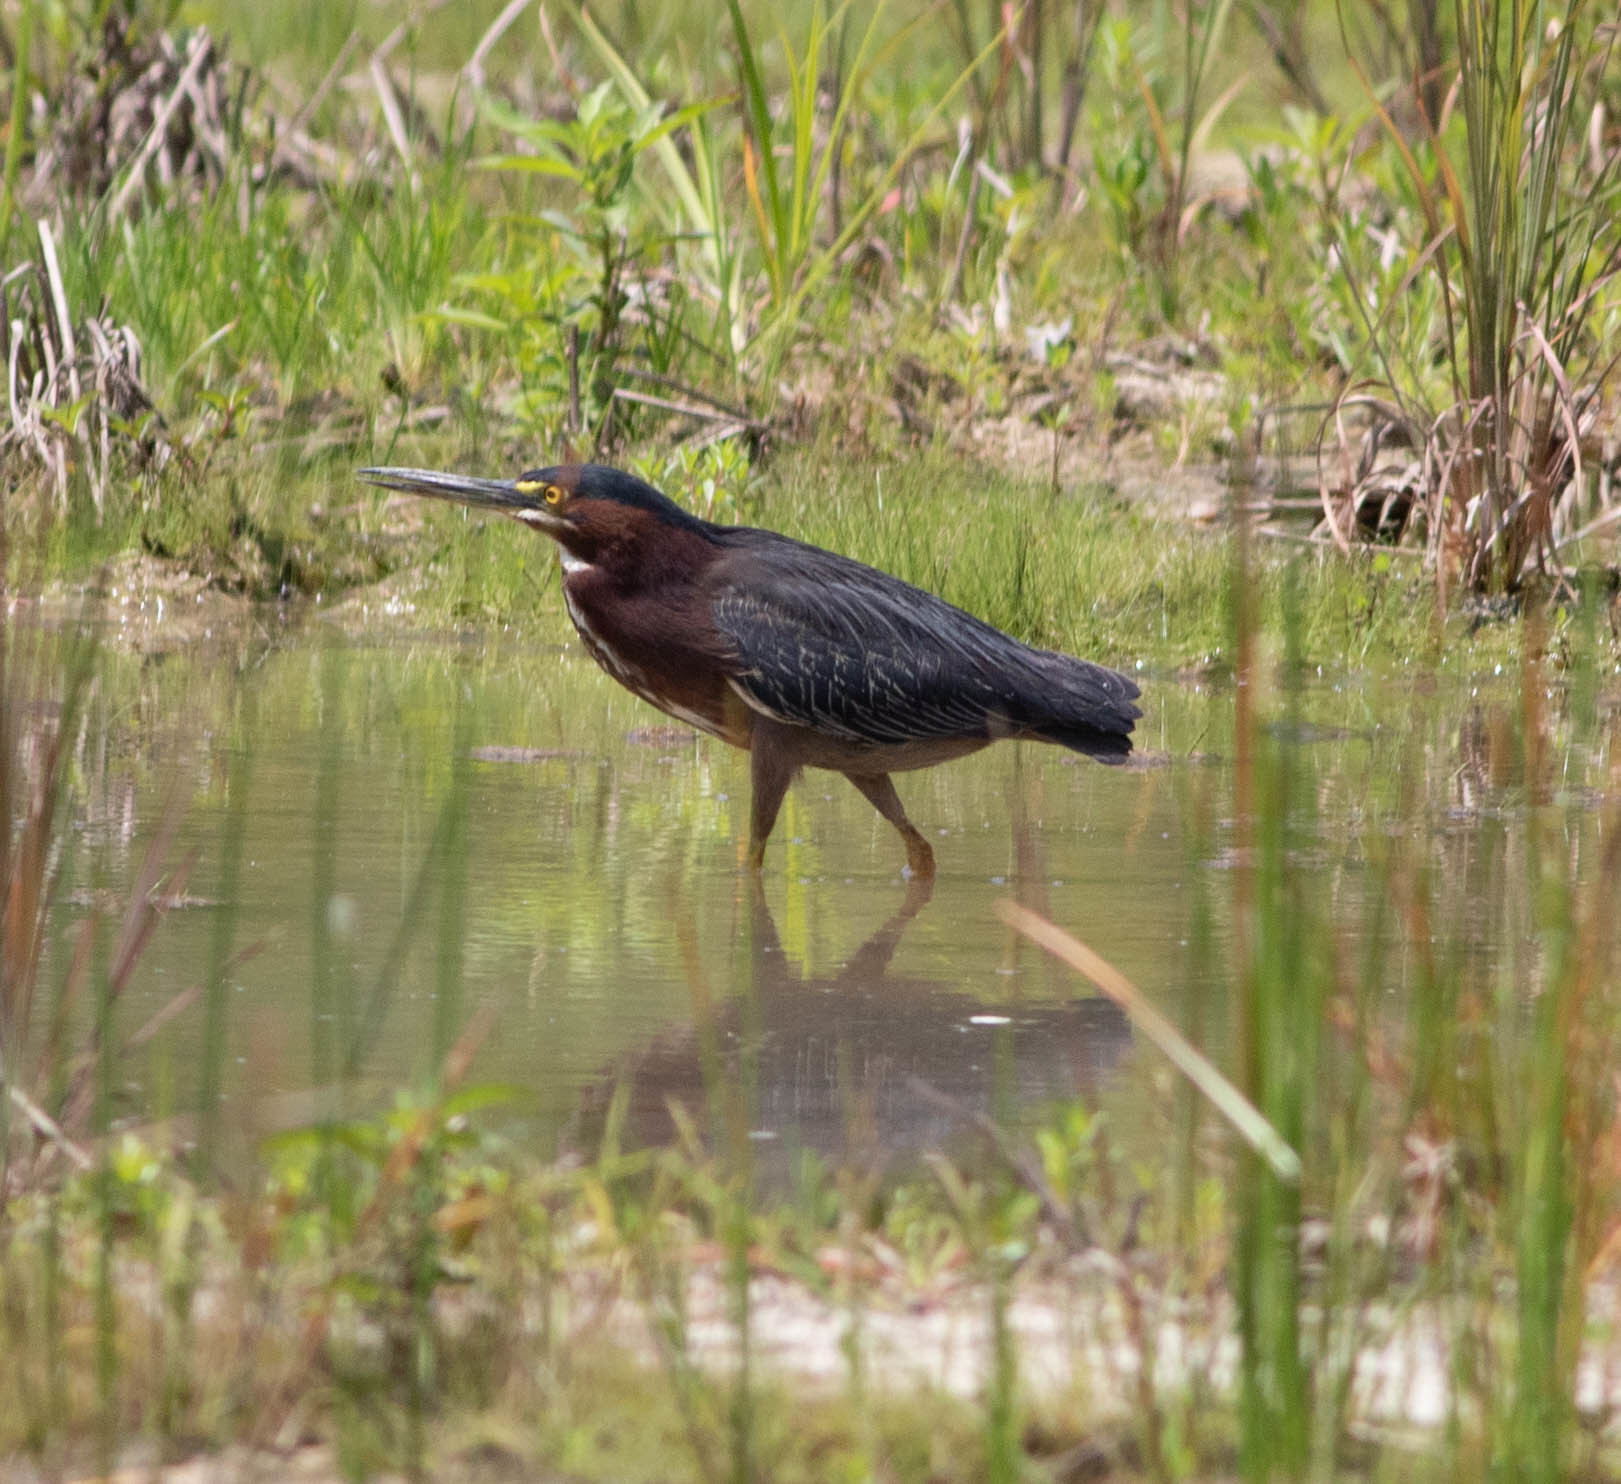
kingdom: Animalia
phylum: Chordata
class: Aves
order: Pelecaniformes
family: Ardeidae
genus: Butorides
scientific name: Butorides virescens
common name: Green heron
